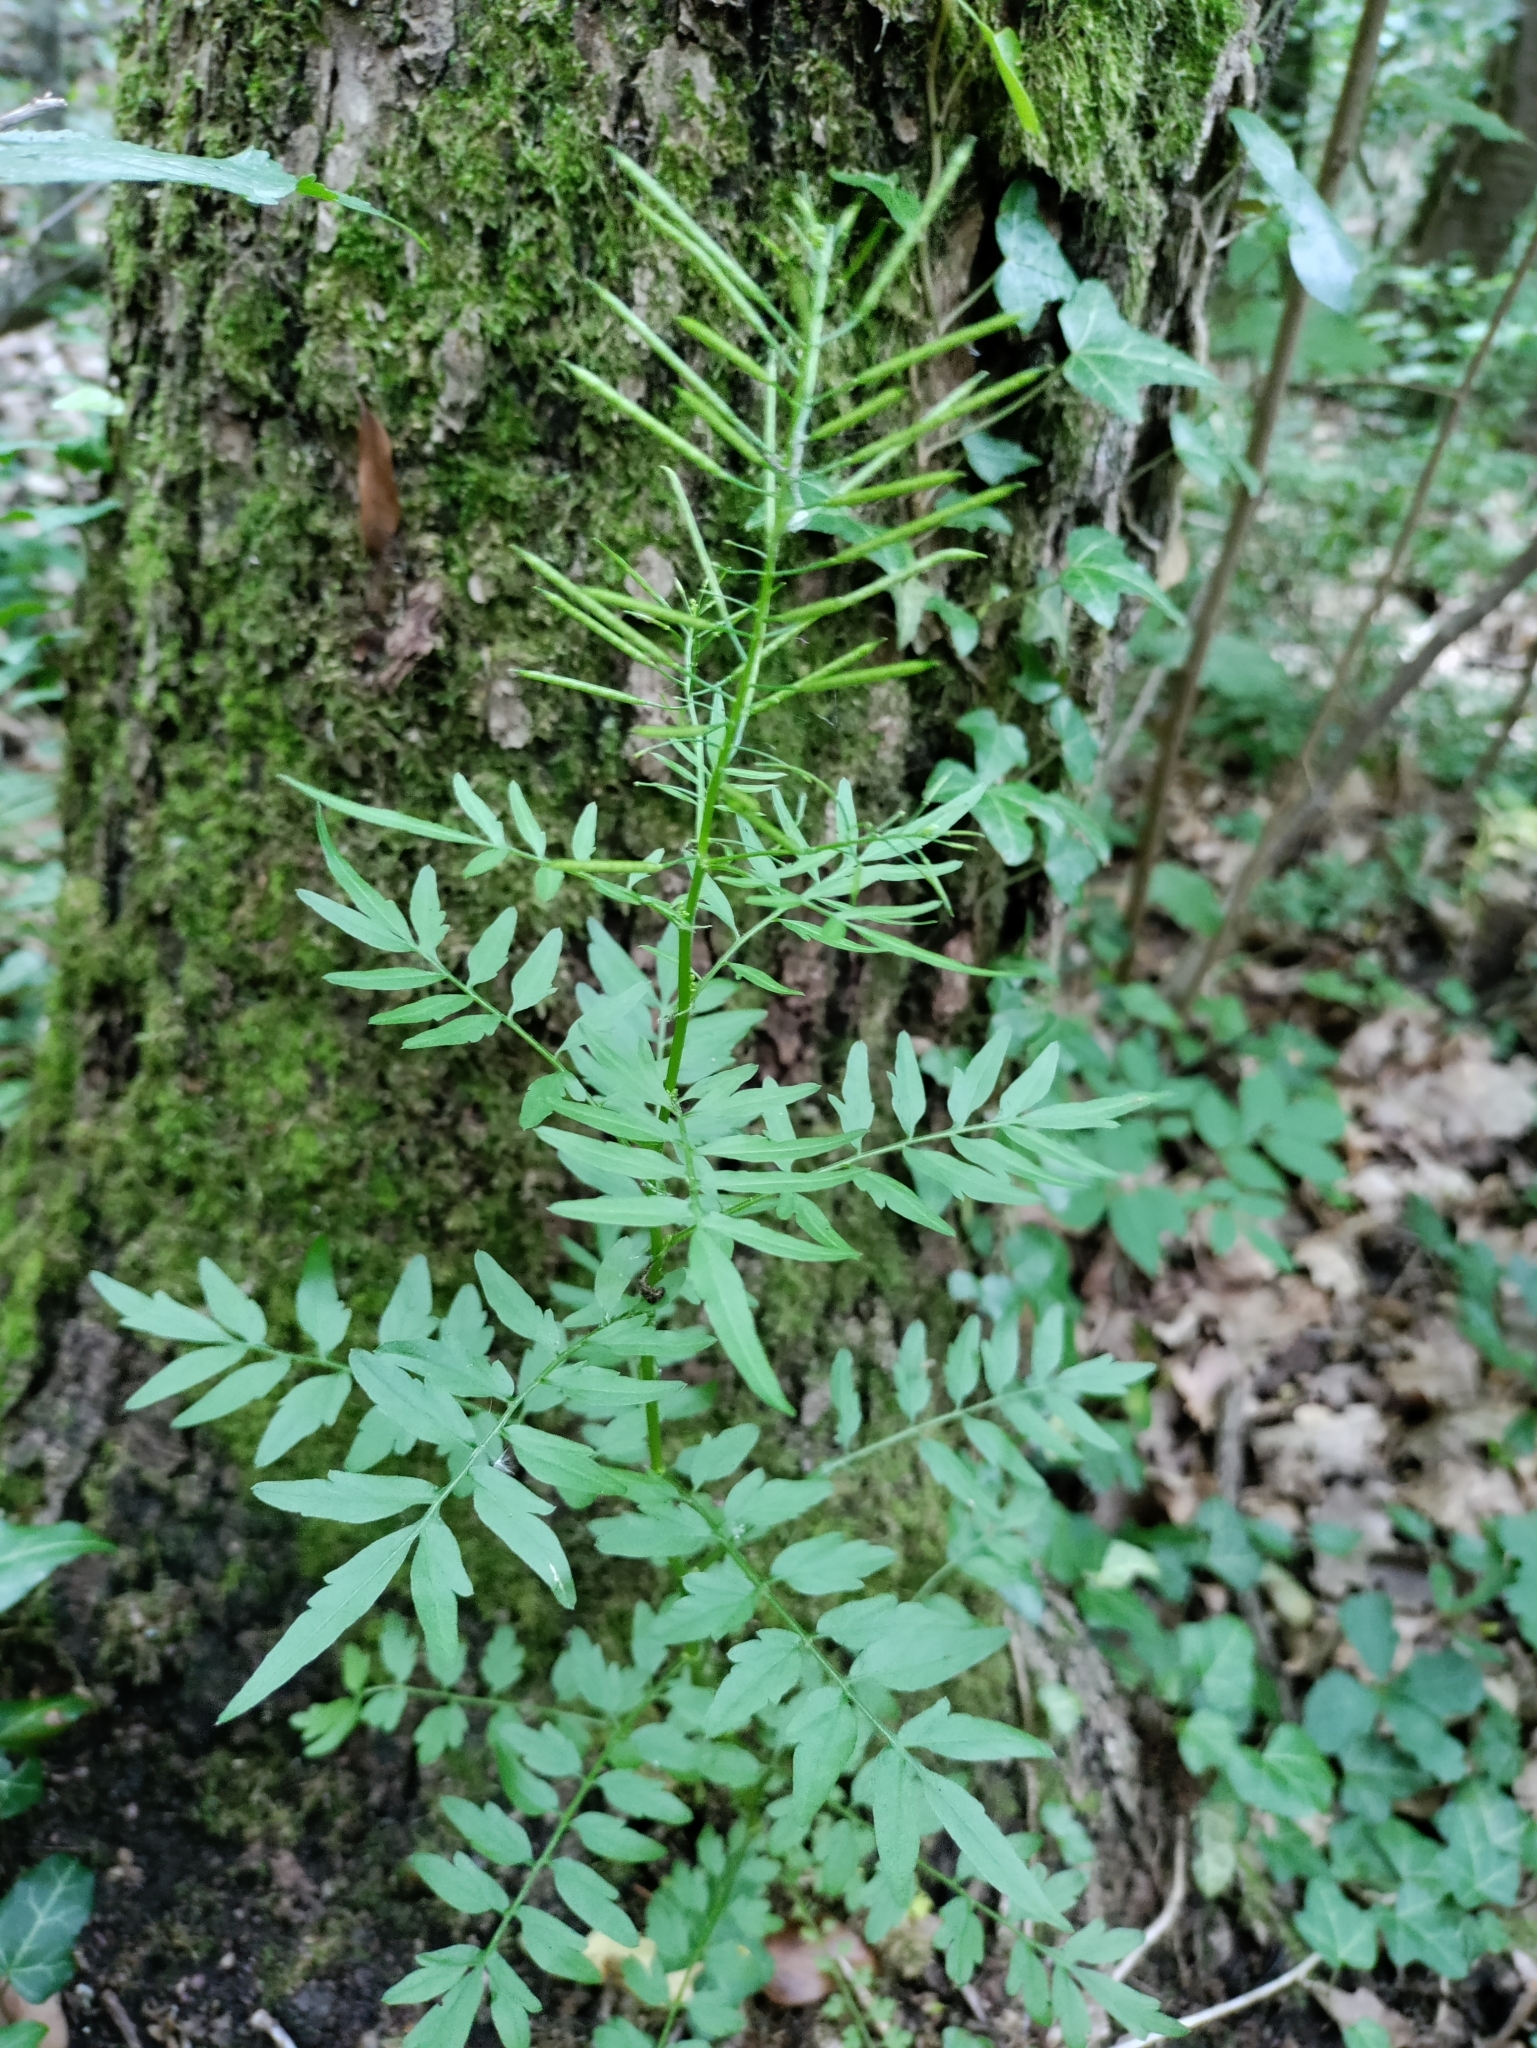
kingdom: Plantae
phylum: Tracheophyta
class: Magnoliopsida
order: Brassicales
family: Brassicaceae
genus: Cardamine
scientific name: Cardamine impatiens
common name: Narrow-leaved bitter-cress
